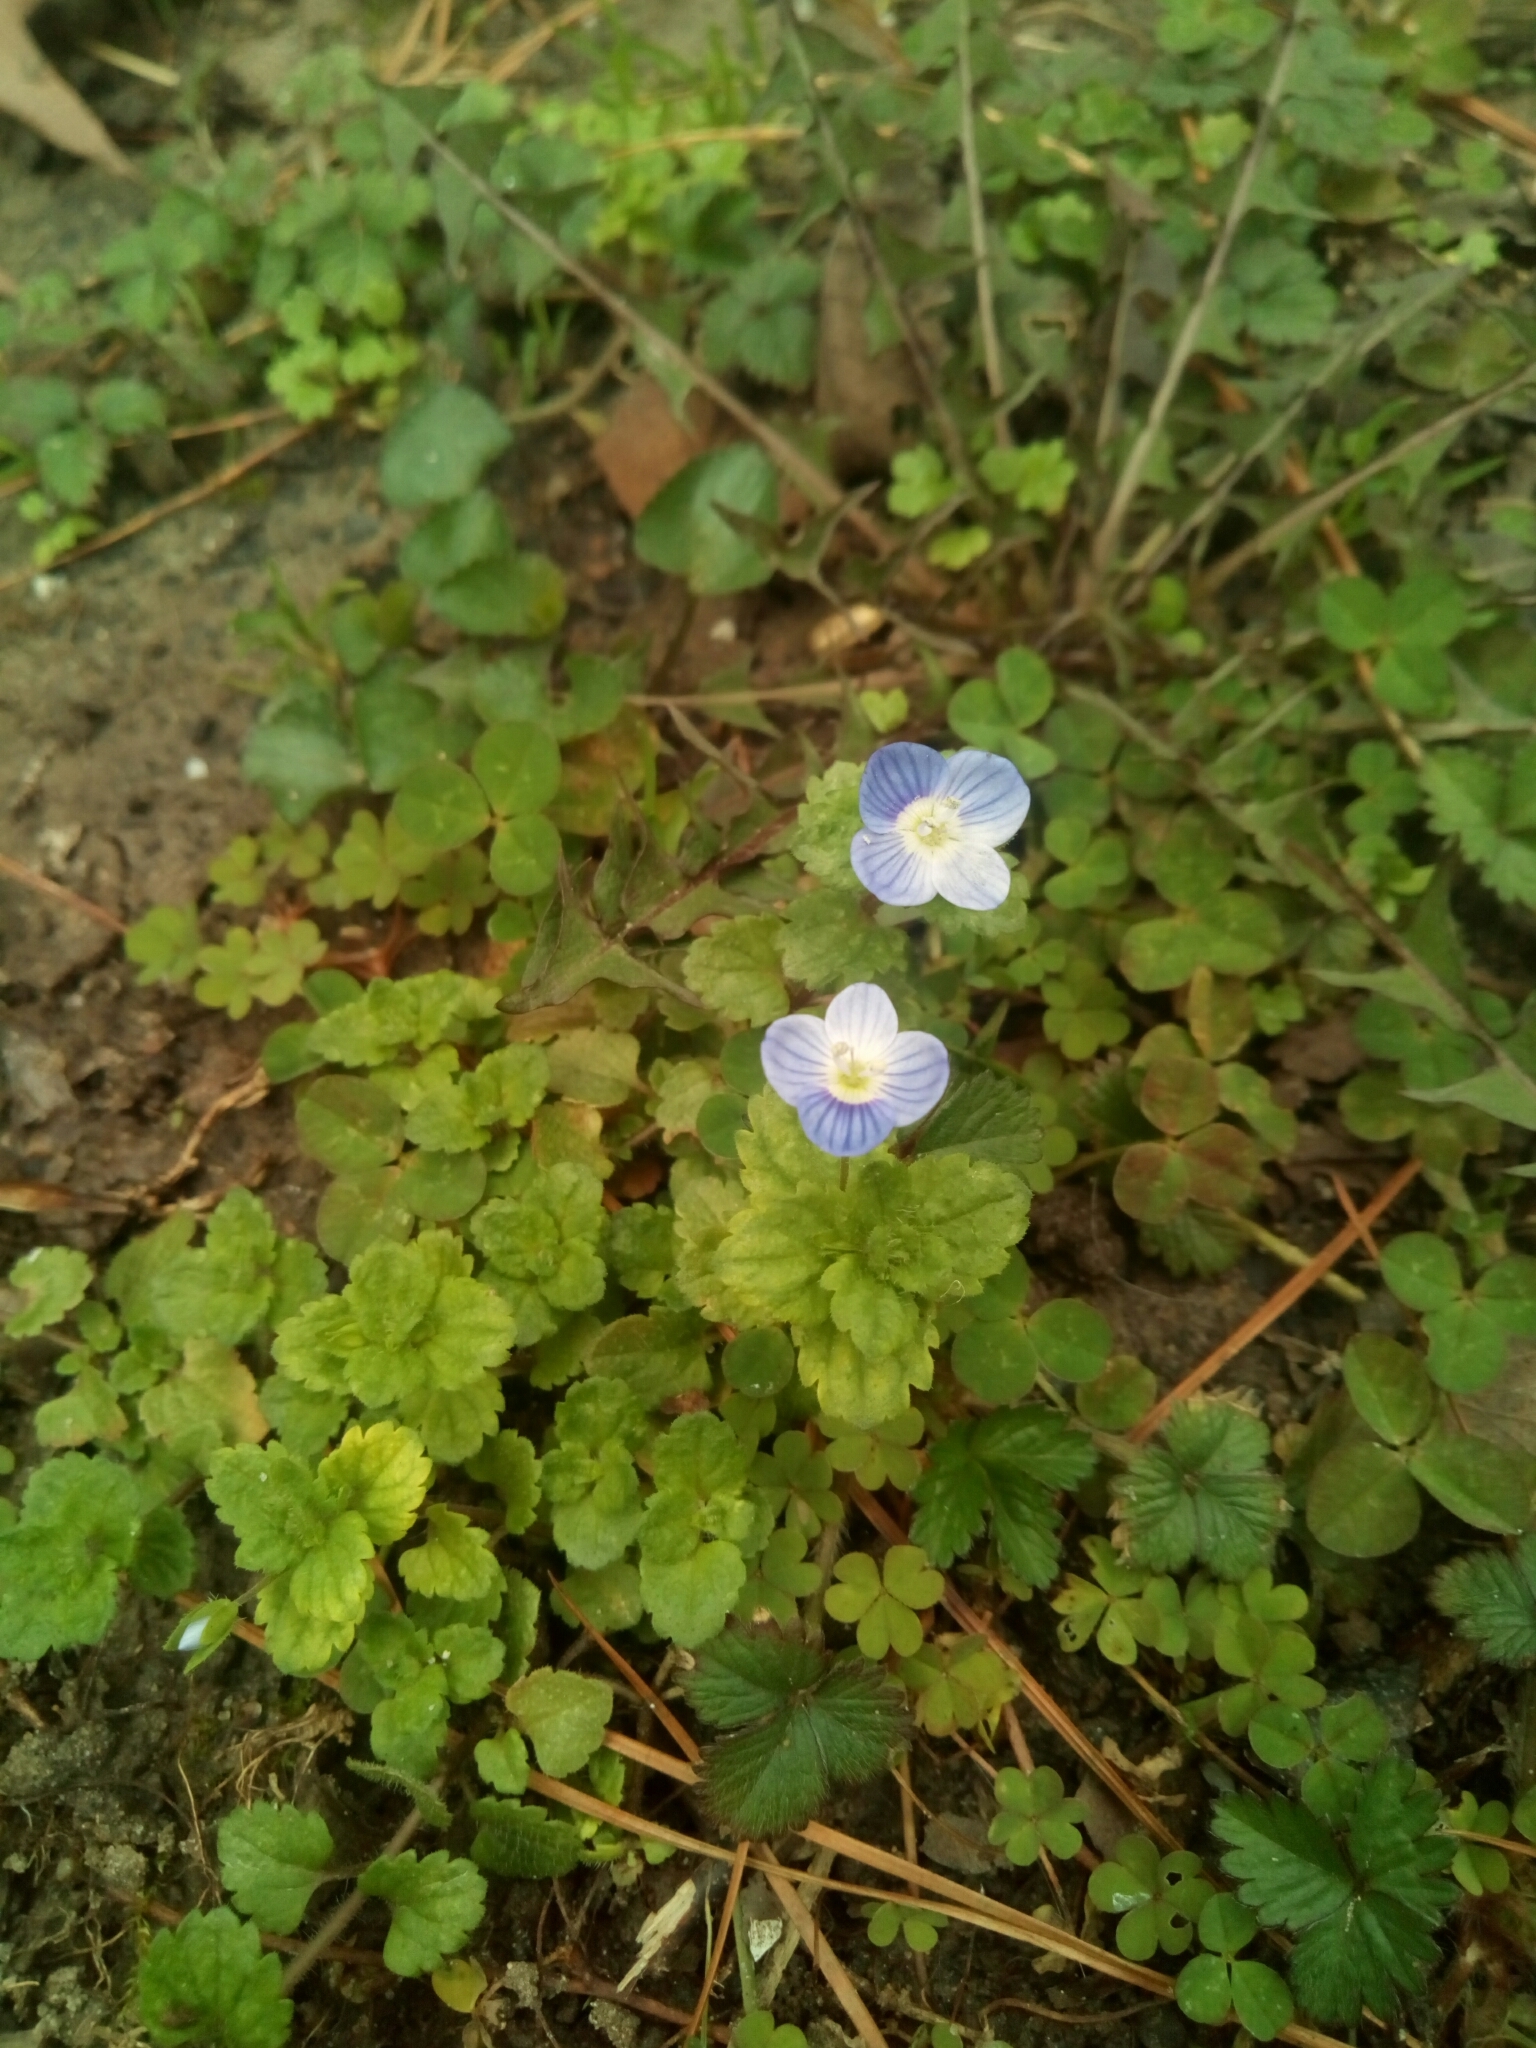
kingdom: Plantae
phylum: Tracheophyta
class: Magnoliopsida
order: Lamiales
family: Plantaginaceae
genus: Veronica
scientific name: Veronica persica
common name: Common field-speedwell
